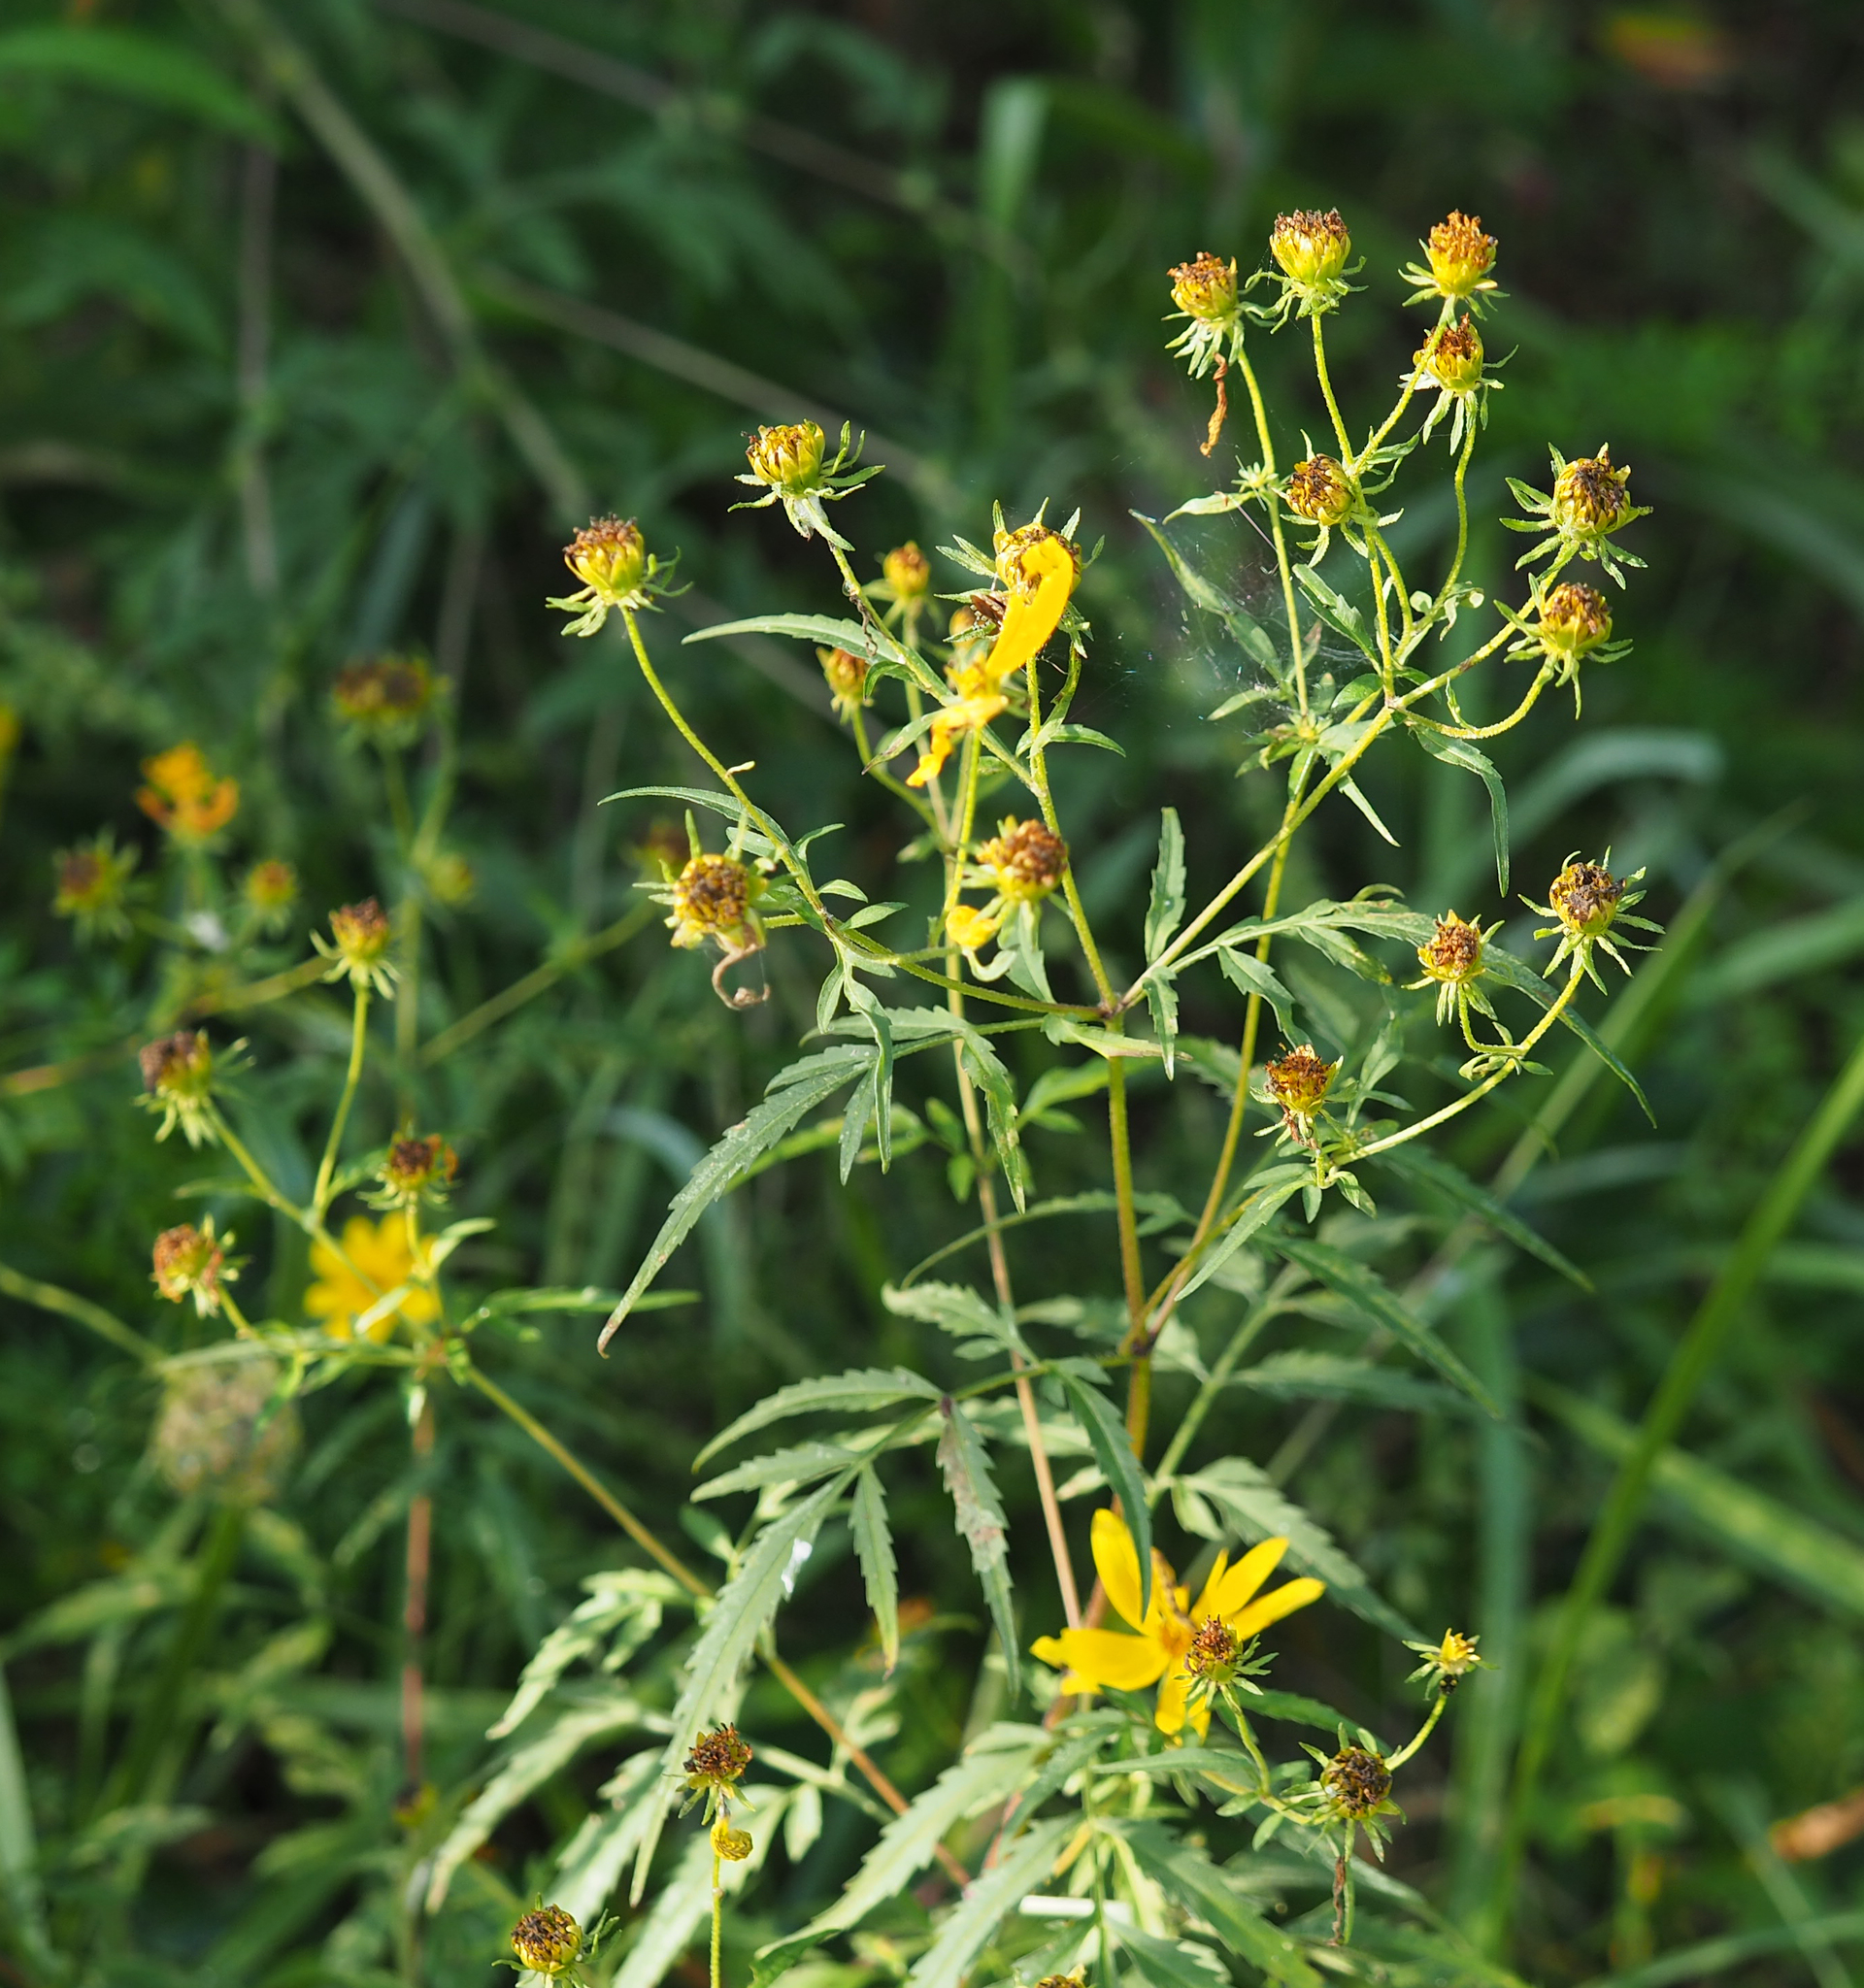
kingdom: Plantae
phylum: Tracheophyta
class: Magnoliopsida
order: Asterales
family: Asteraceae
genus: Bidens
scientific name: Bidens aristosa
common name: Western tickseed
